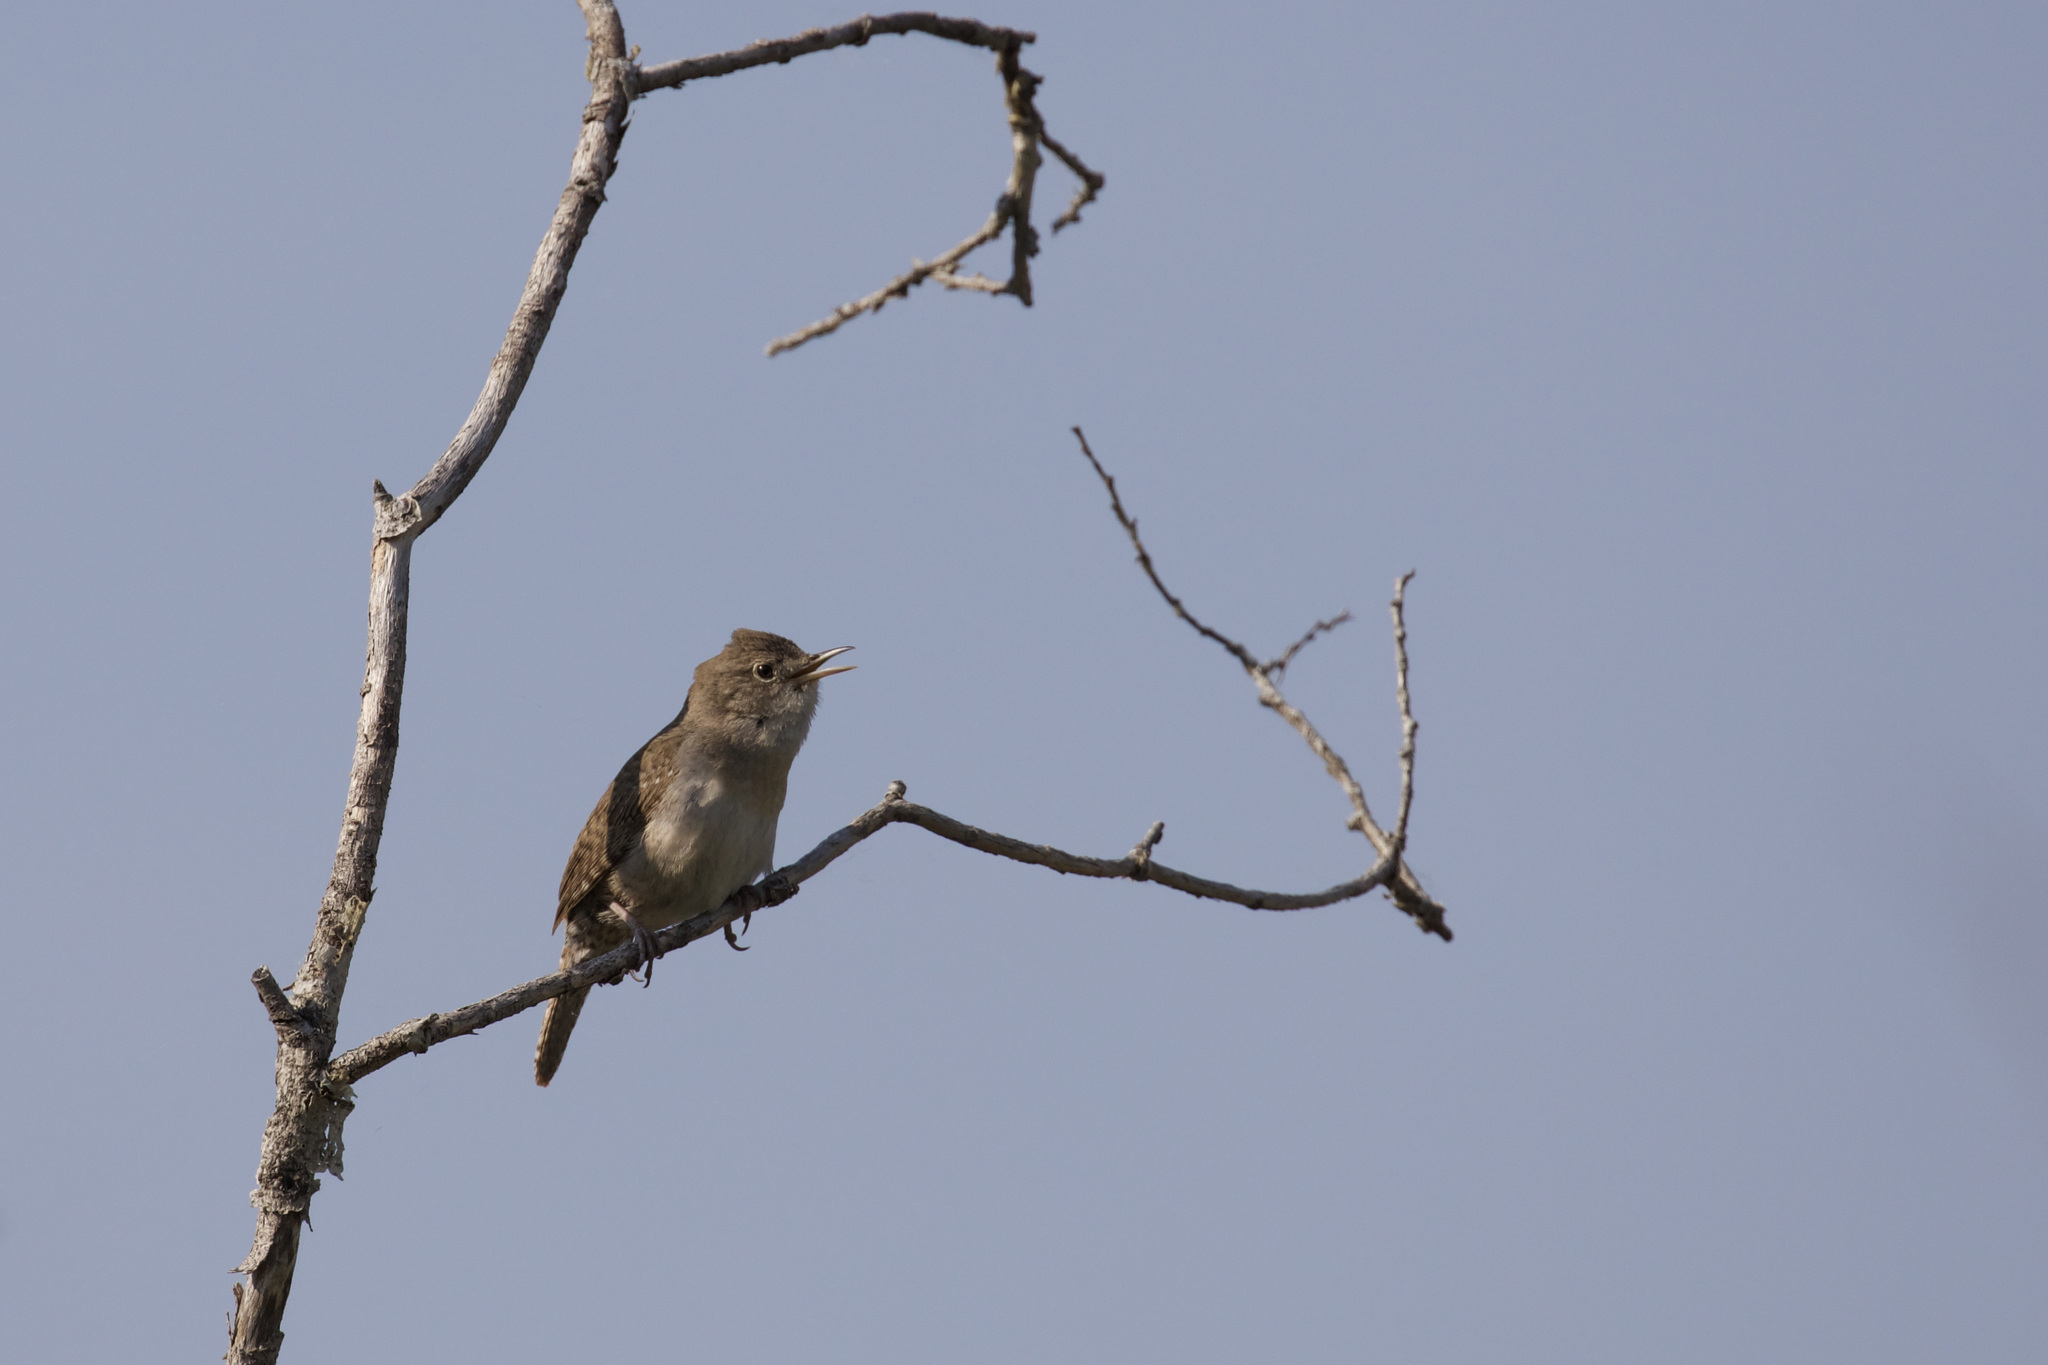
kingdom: Animalia
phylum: Chordata
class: Aves
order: Passeriformes
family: Troglodytidae
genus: Troglodytes
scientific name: Troglodytes aedon
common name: House wren
